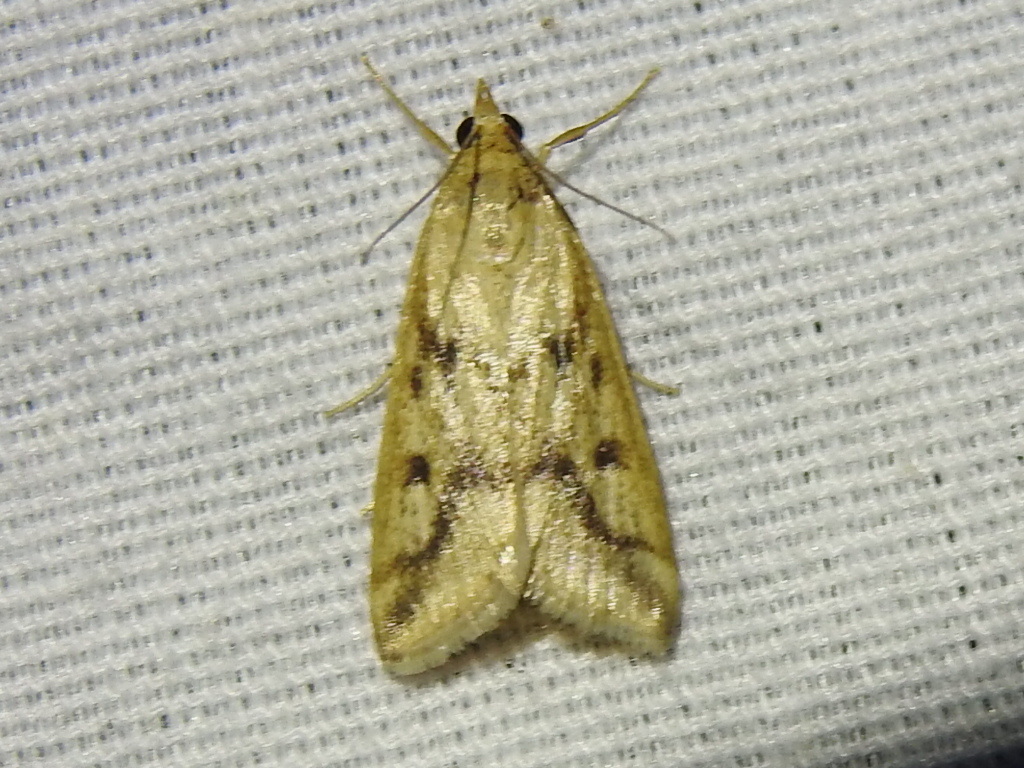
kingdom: Animalia
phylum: Arthropoda
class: Insecta
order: Lepidoptera
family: Crambidae
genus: Achyra
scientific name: Achyra bifidalis
